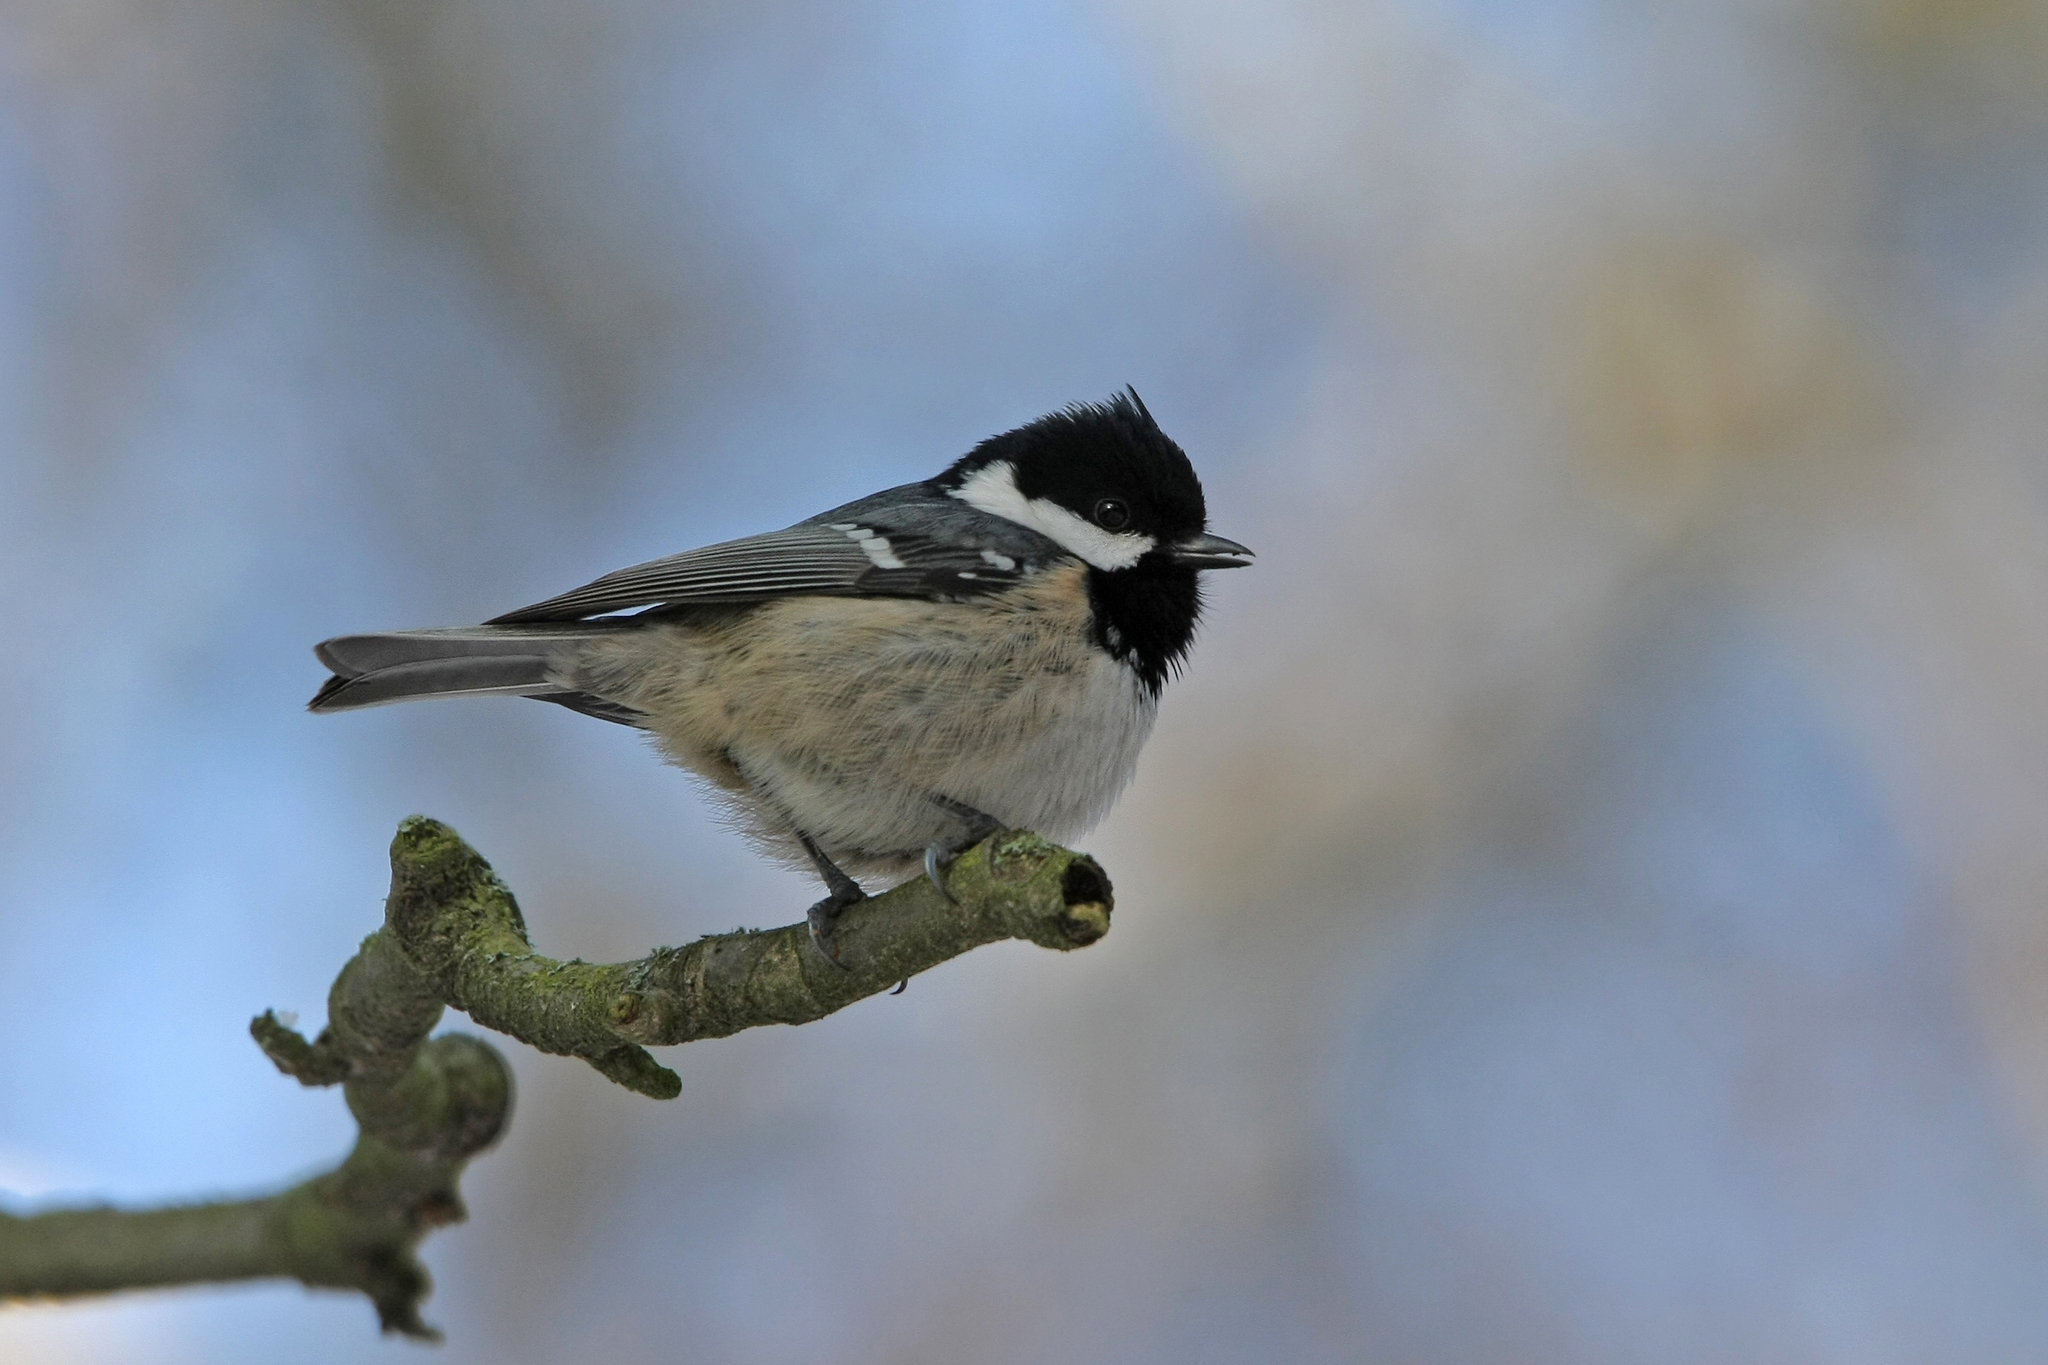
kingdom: Animalia
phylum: Chordata
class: Aves
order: Passeriformes
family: Paridae
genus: Periparus
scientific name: Periparus ater
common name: Coal tit
